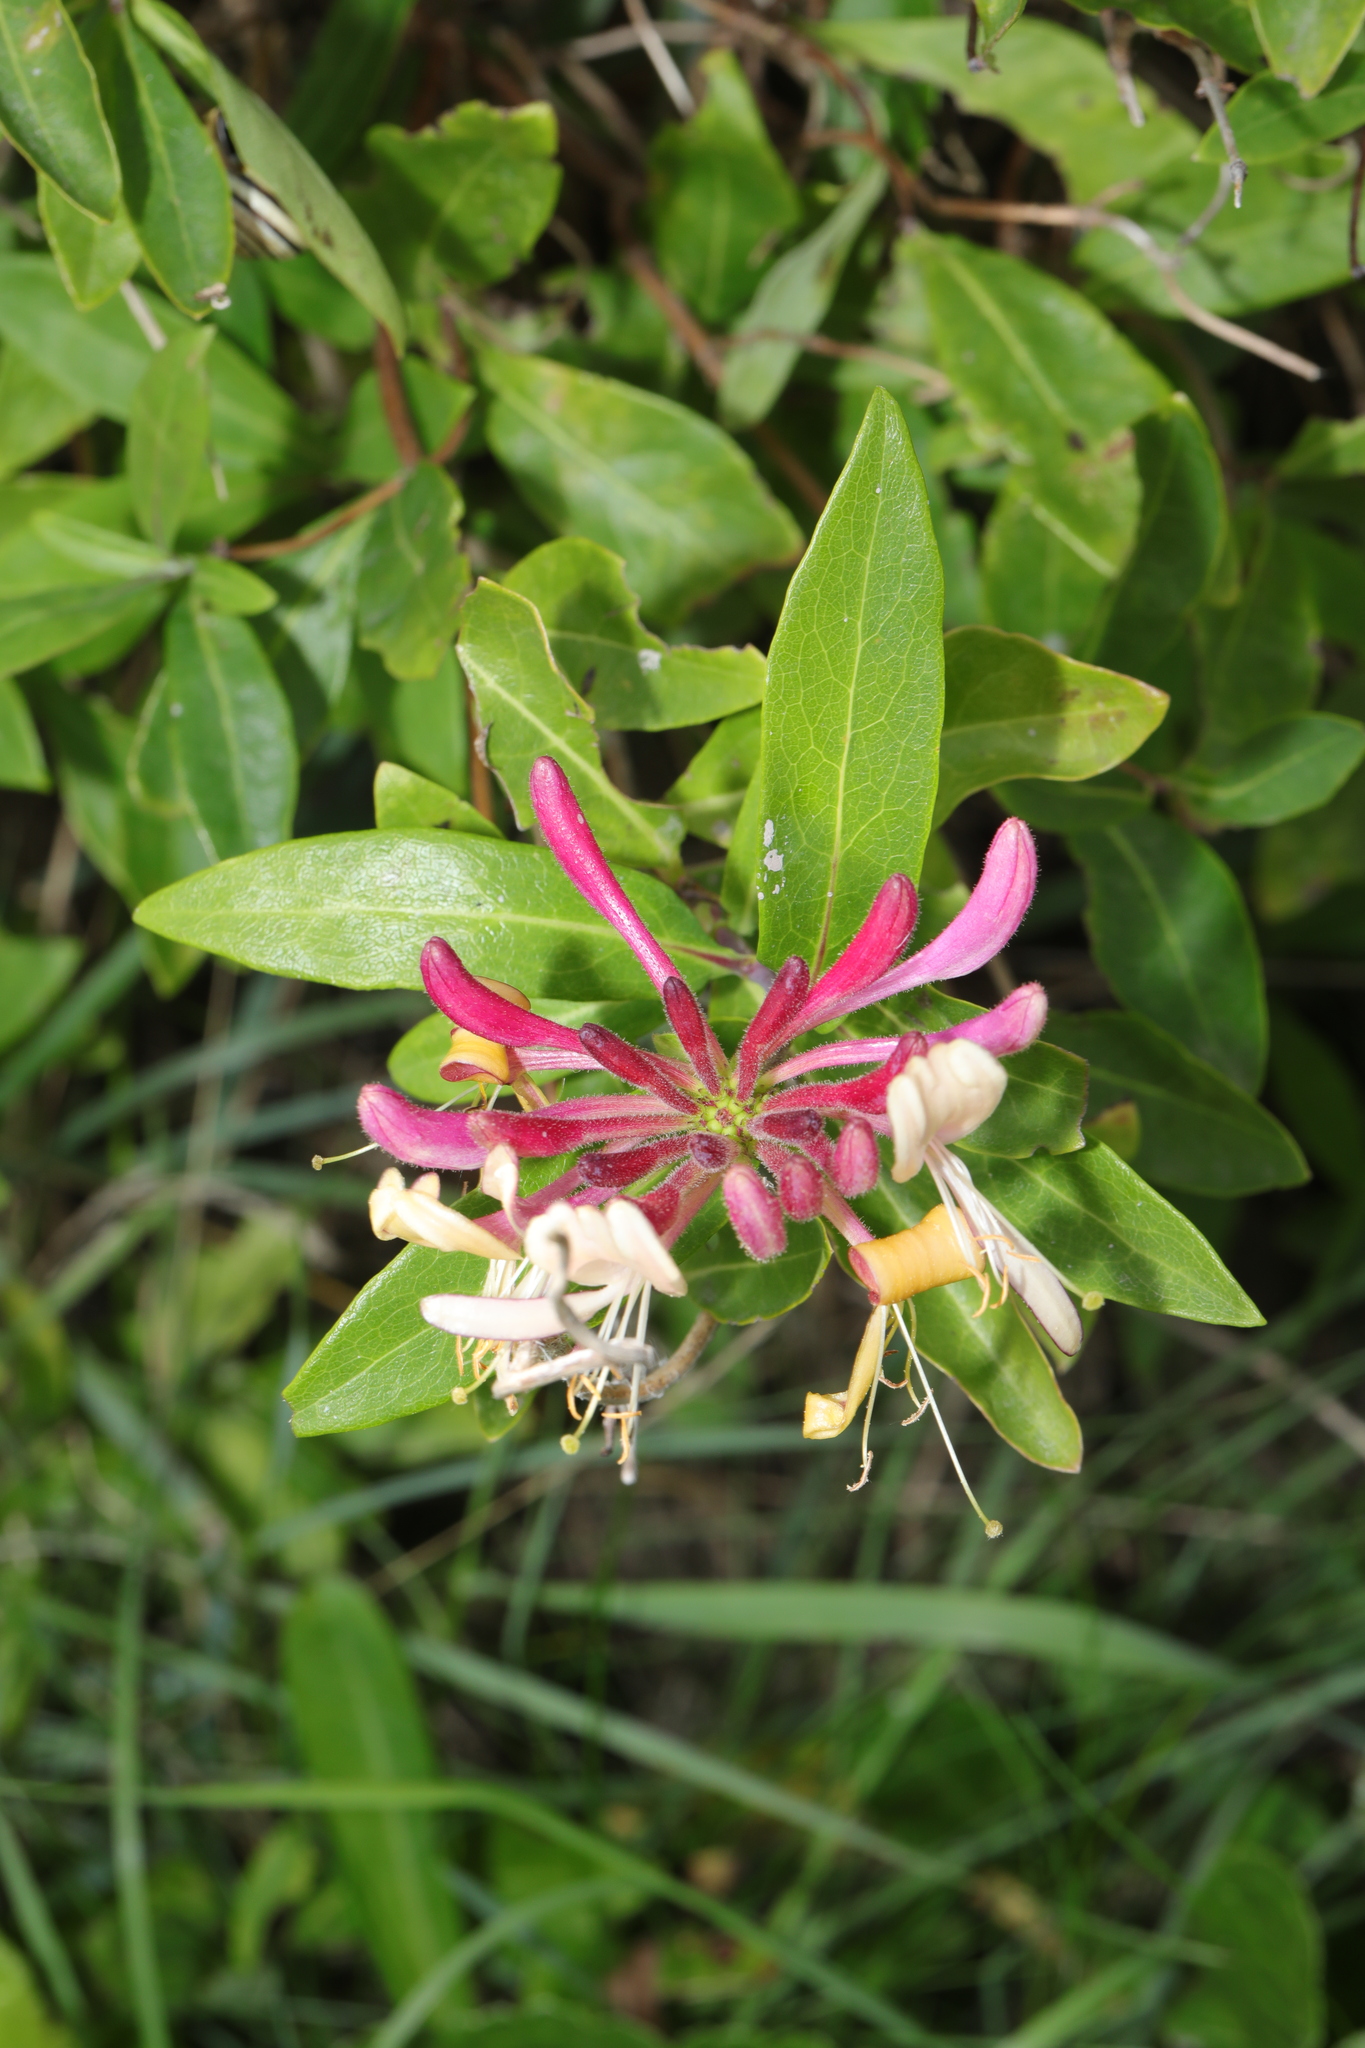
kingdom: Plantae
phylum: Tracheophyta
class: Magnoliopsida
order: Dipsacales
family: Caprifoliaceae
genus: Lonicera
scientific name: Lonicera periclymenum
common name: European honeysuckle
